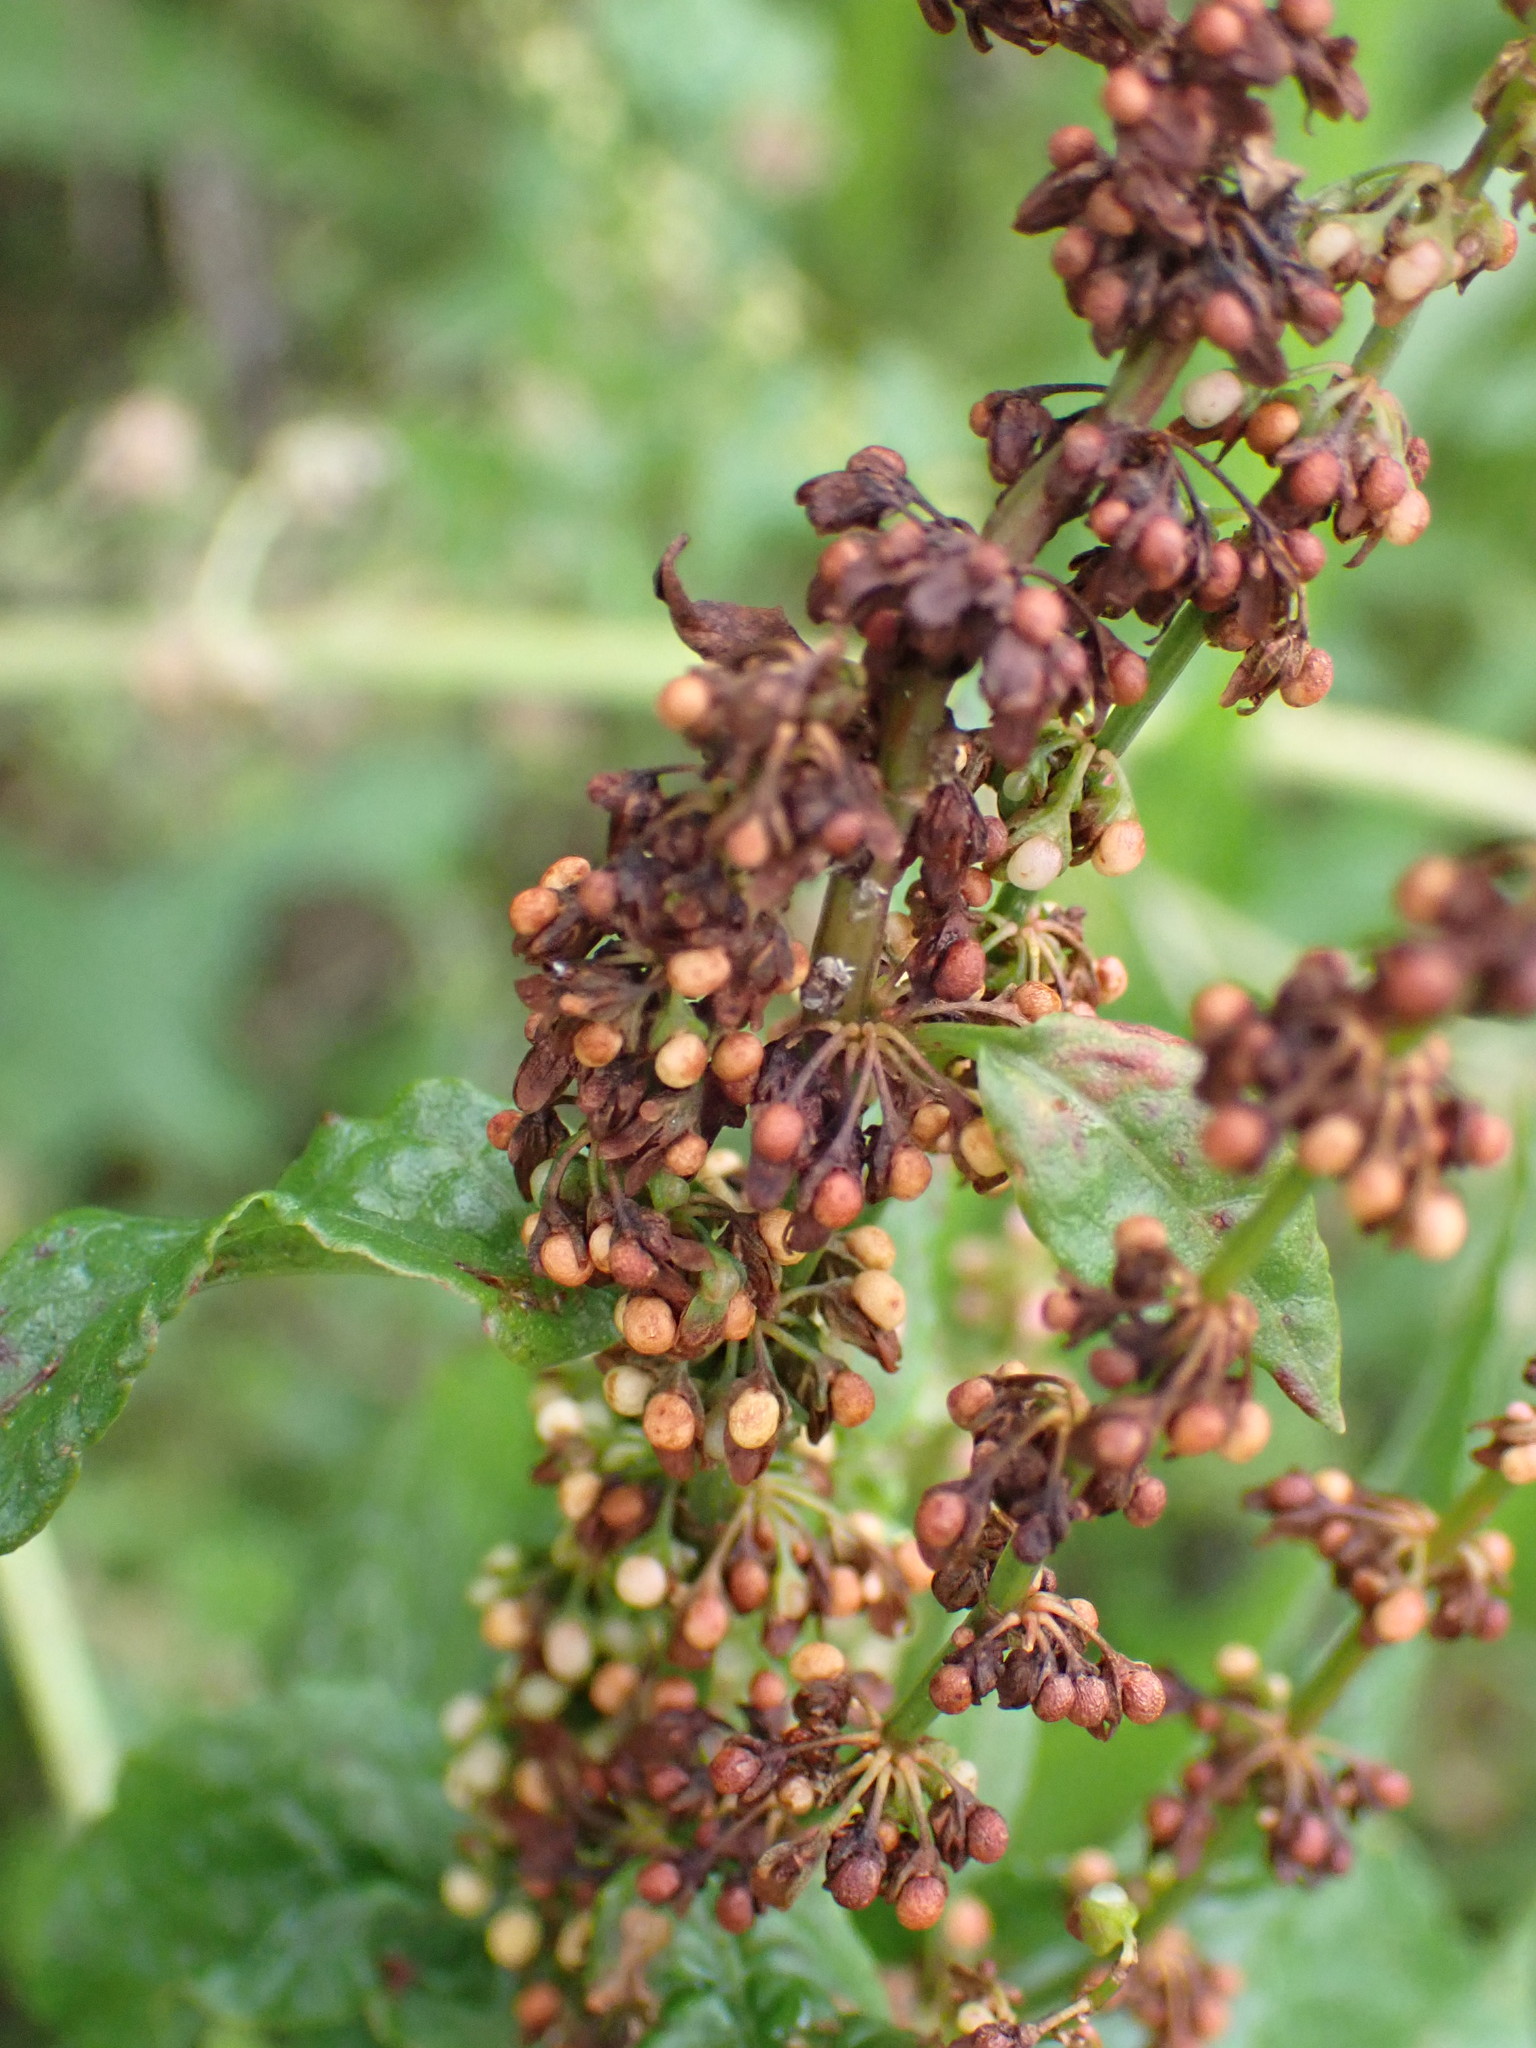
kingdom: Plantae
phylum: Tracheophyta
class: Magnoliopsida
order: Caryophyllales
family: Polygonaceae
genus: Rumex
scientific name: Rumex sanguineus
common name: Wood dock
